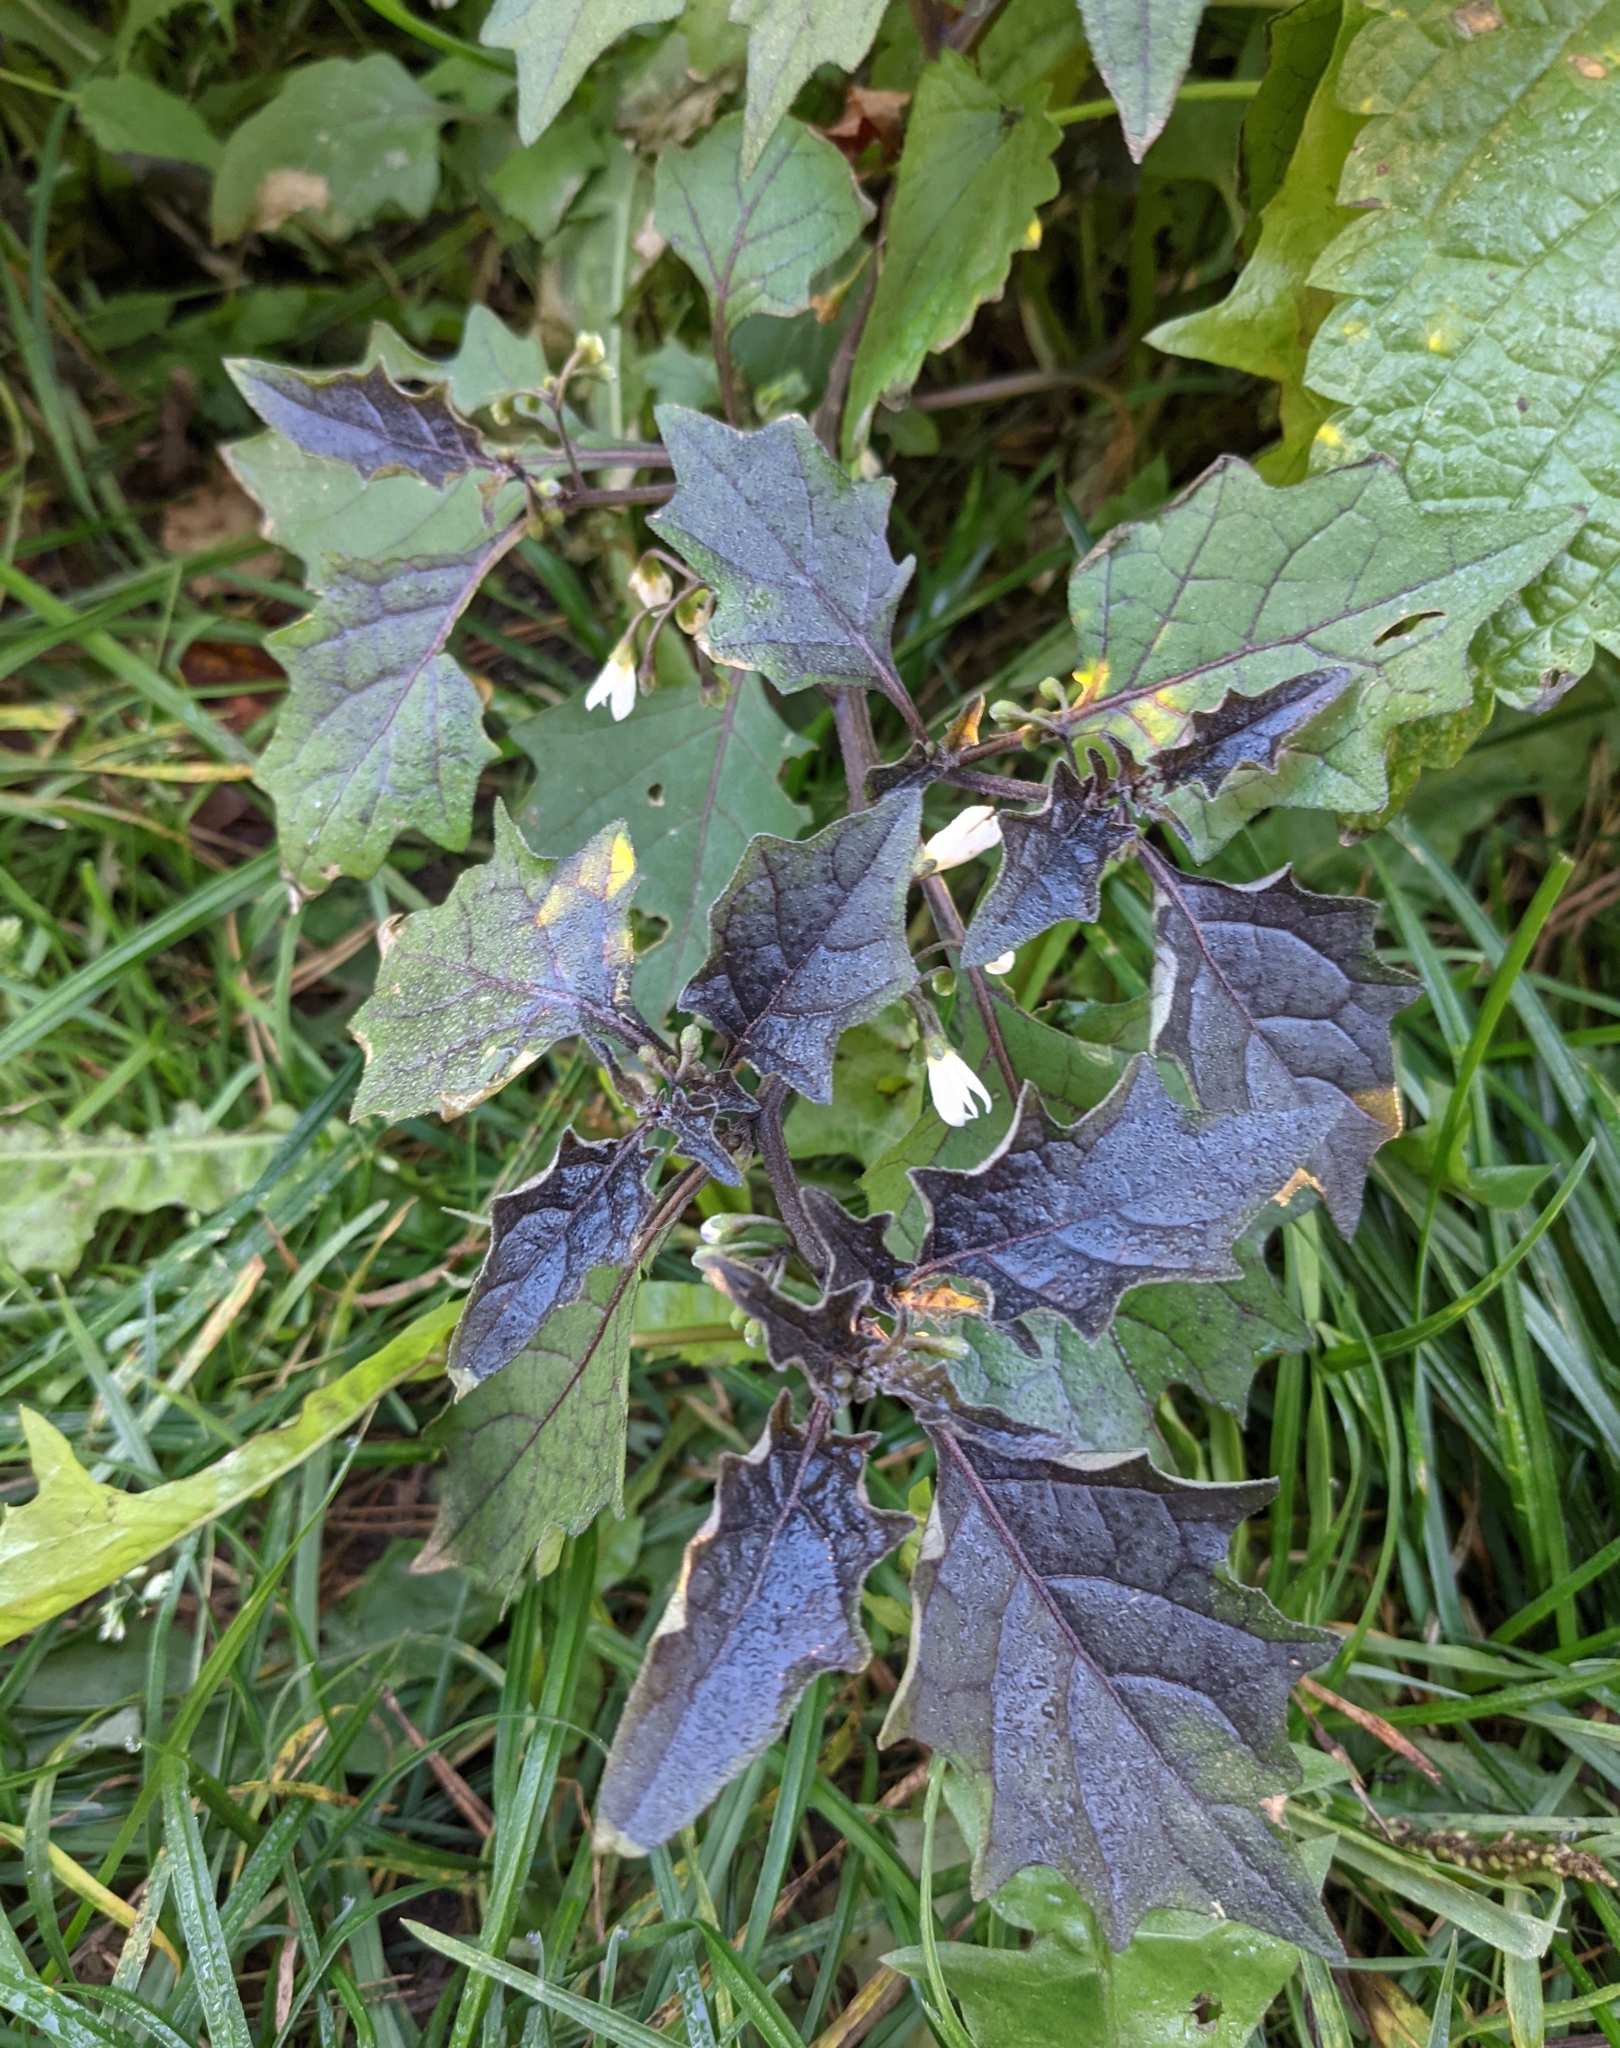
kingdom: Plantae
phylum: Tracheophyta
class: Magnoliopsida
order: Solanales
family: Solanaceae
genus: Solanum
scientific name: Solanum nigrum
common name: Black nightshade
